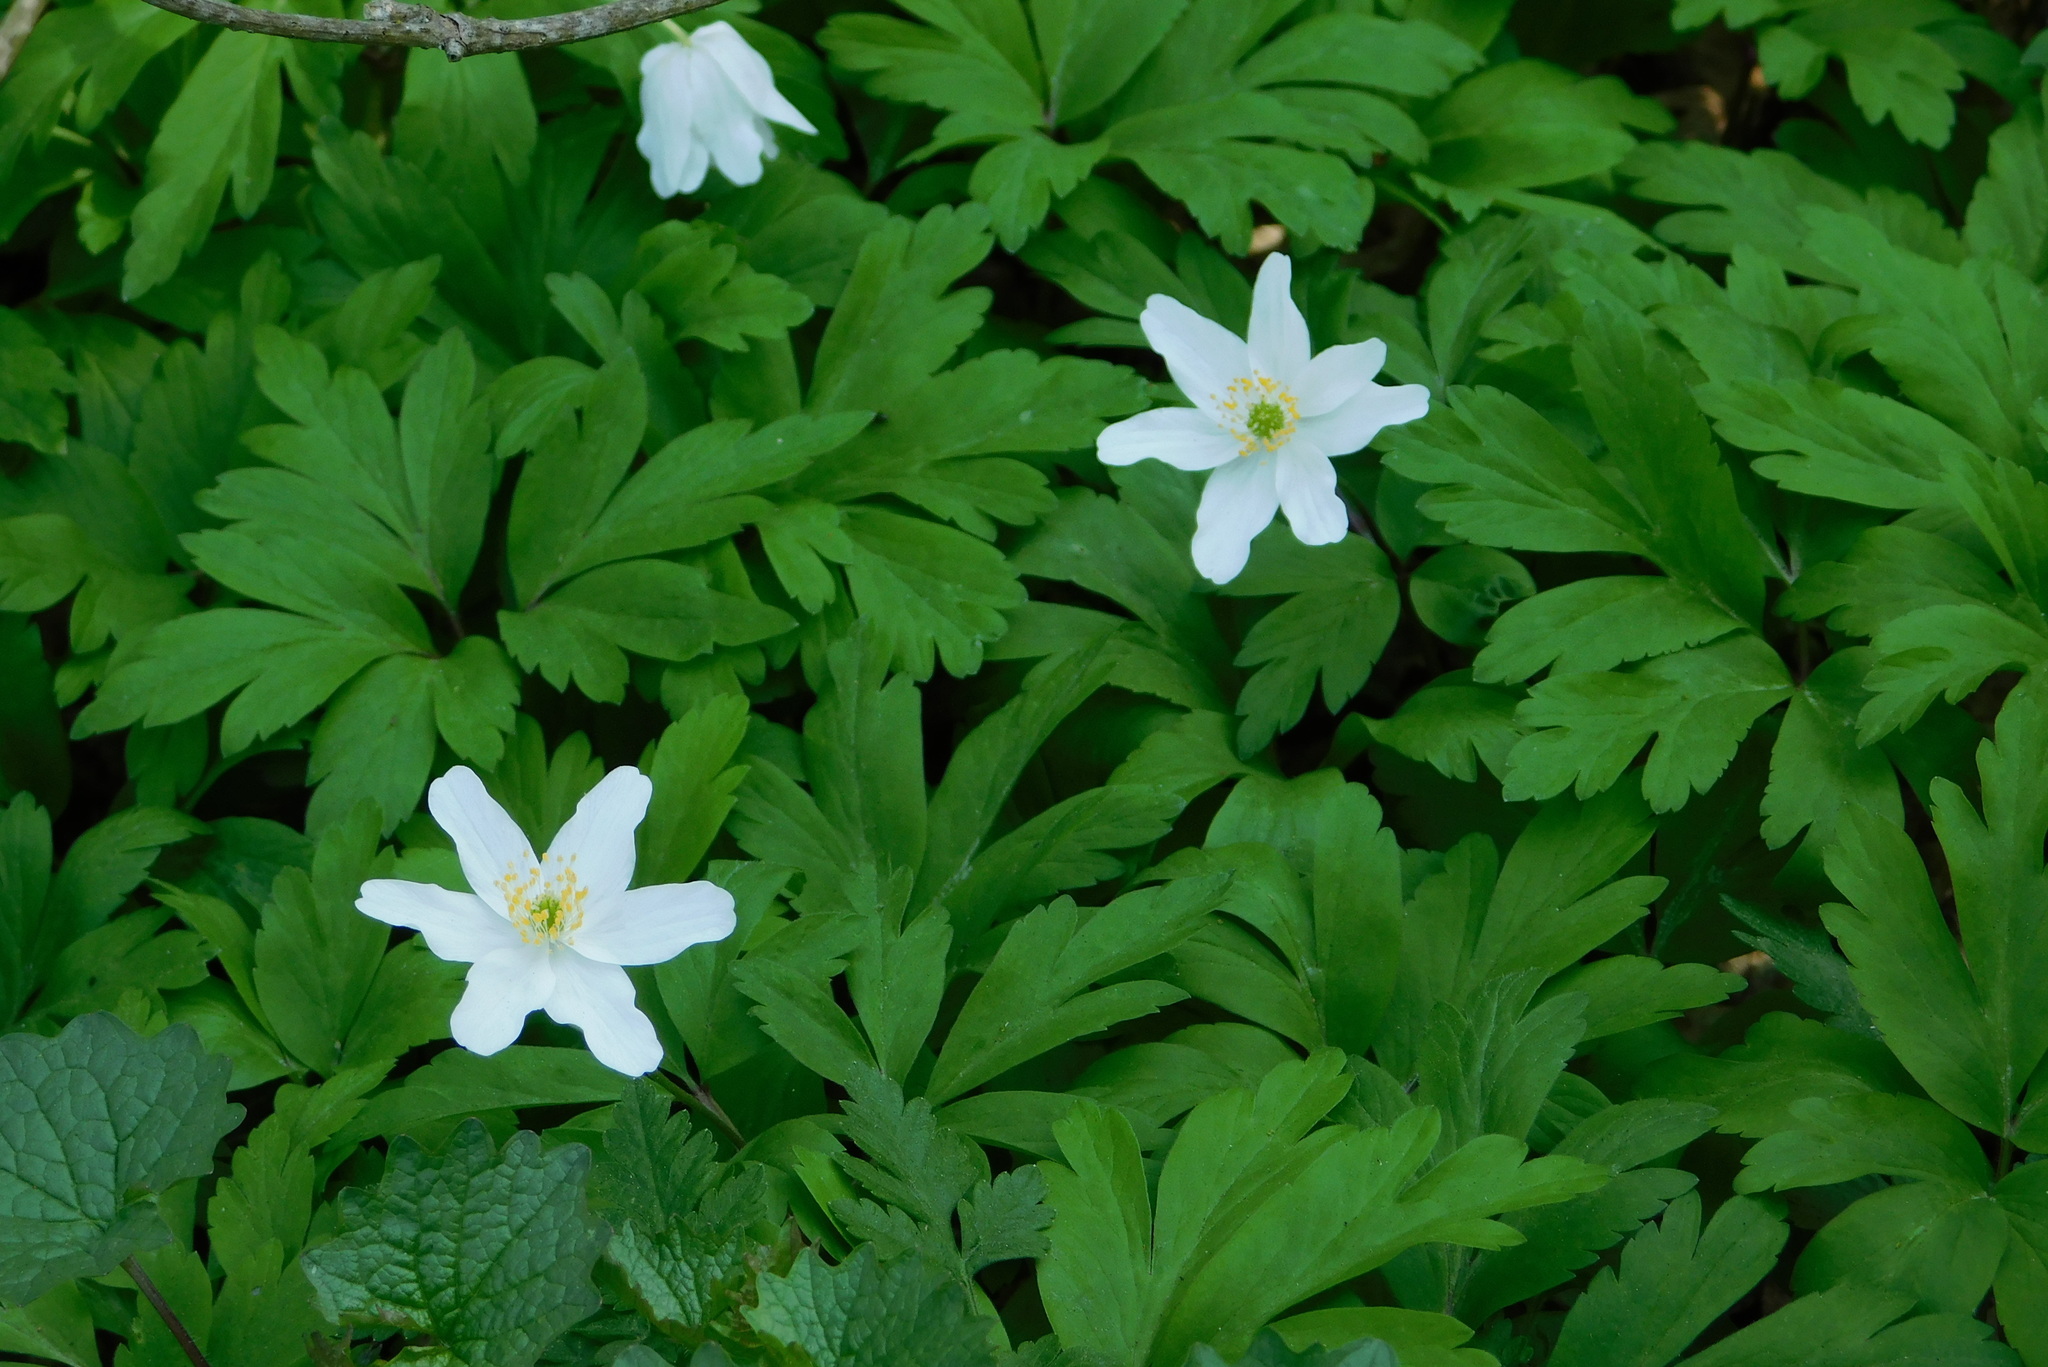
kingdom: Plantae
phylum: Tracheophyta
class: Magnoliopsida
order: Ranunculales
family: Ranunculaceae
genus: Anemone
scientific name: Anemone nemorosa
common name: Wood anemone
